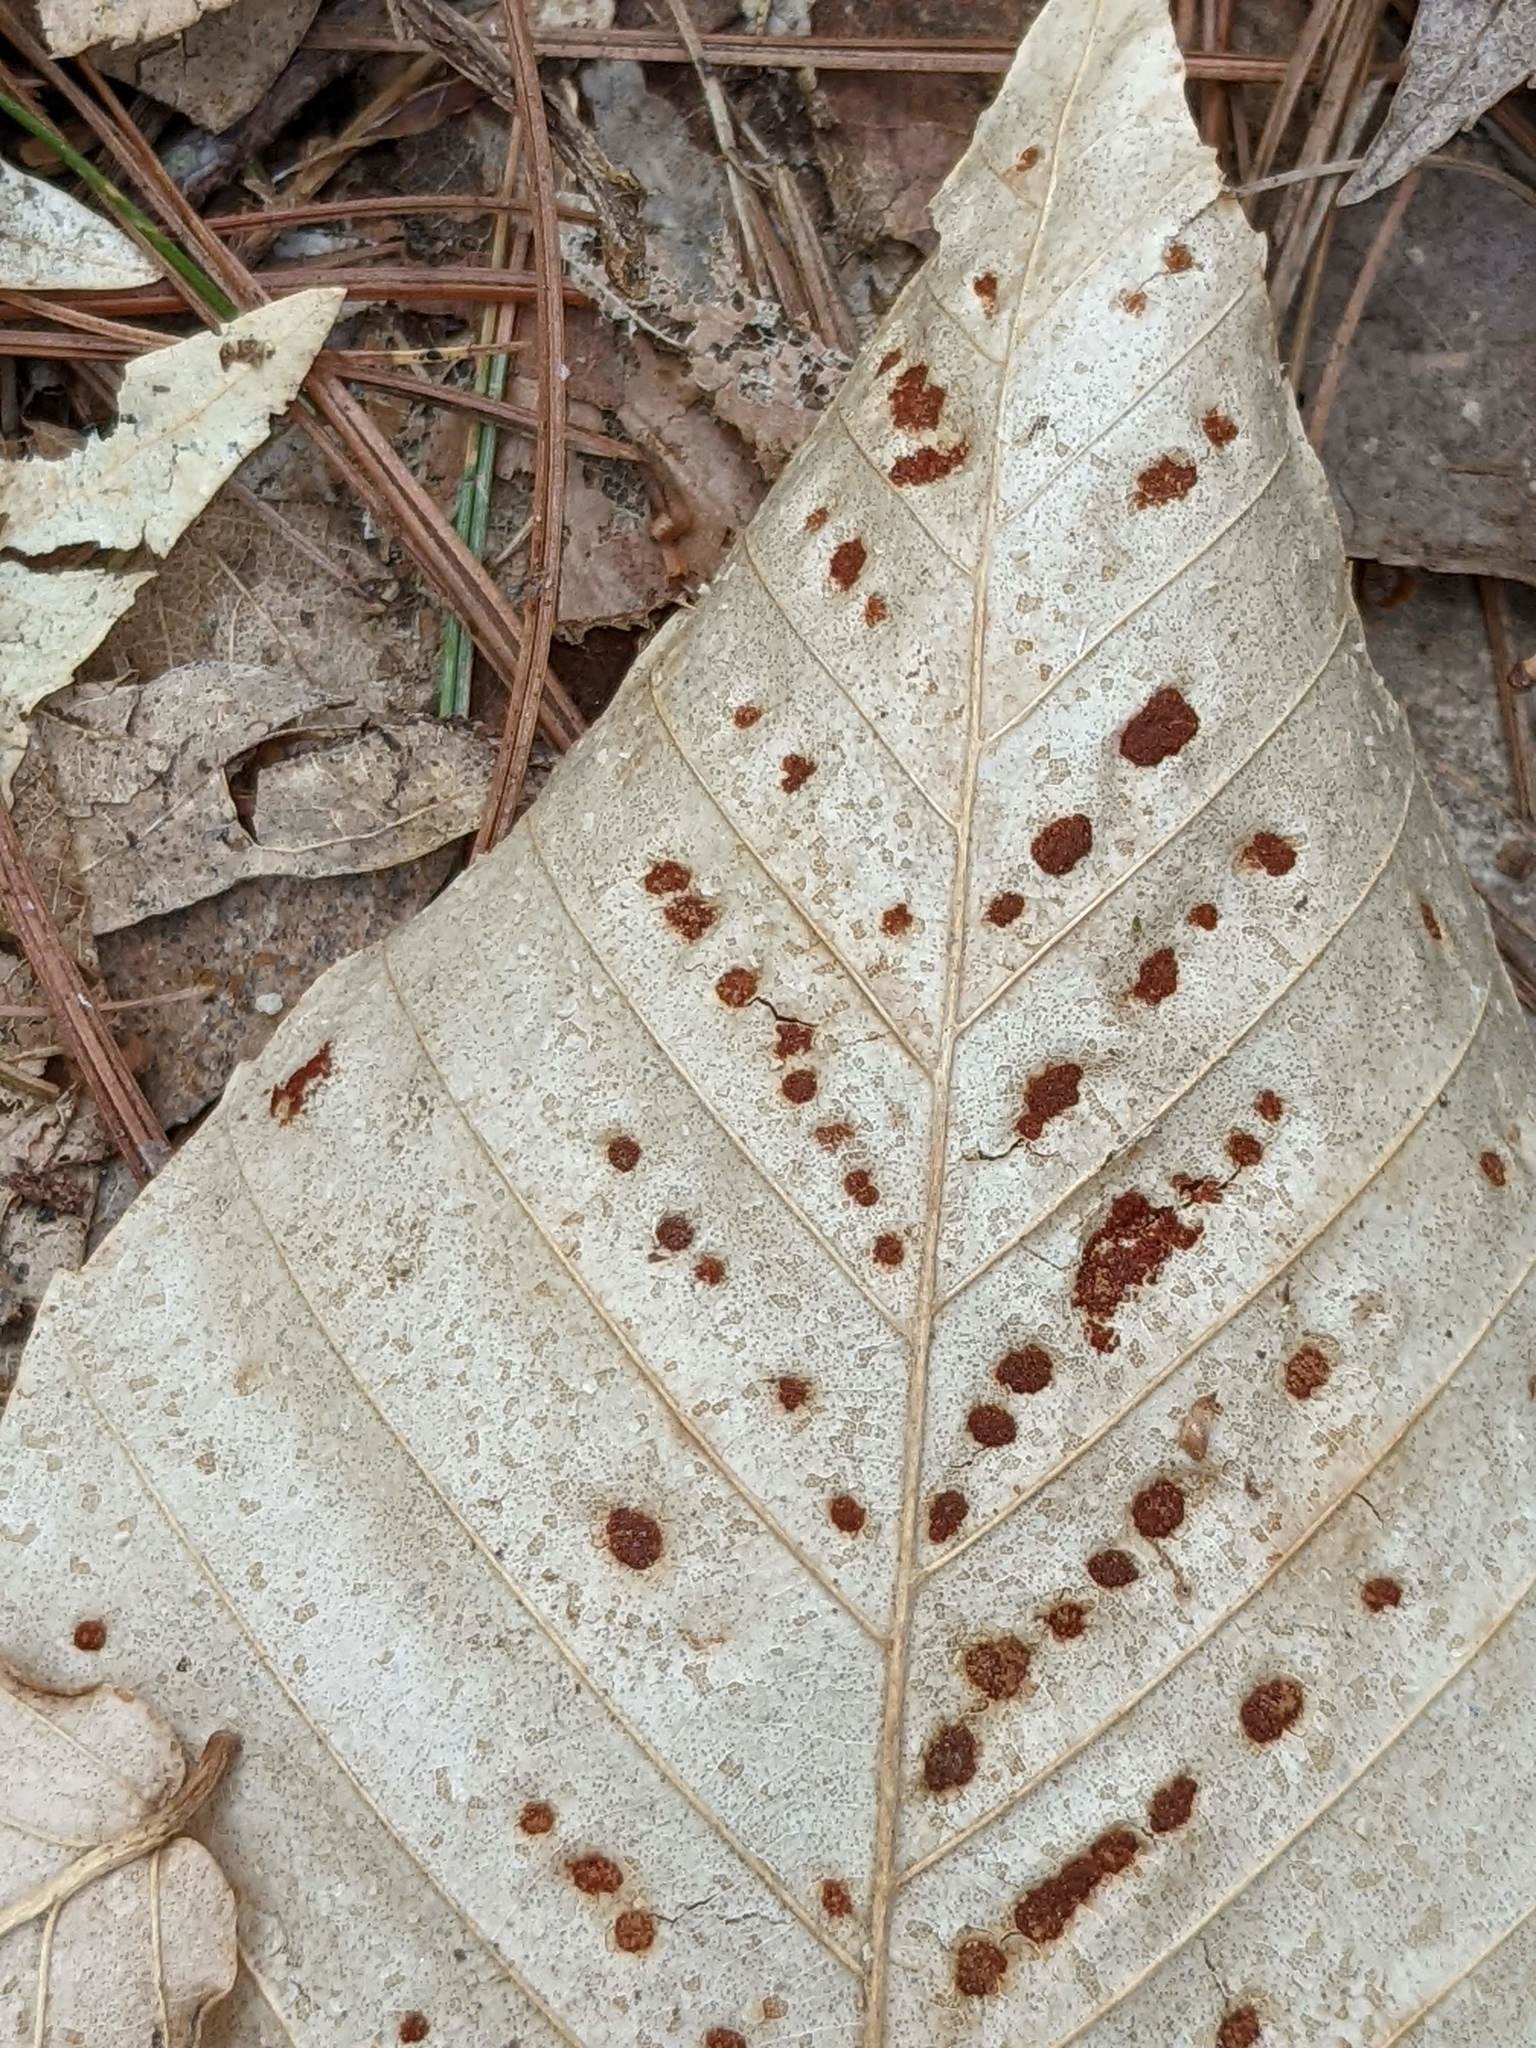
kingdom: Animalia
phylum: Arthropoda
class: Arachnida
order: Trombidiformes
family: Eriophyidae
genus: Acalitus
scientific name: Acalitus
